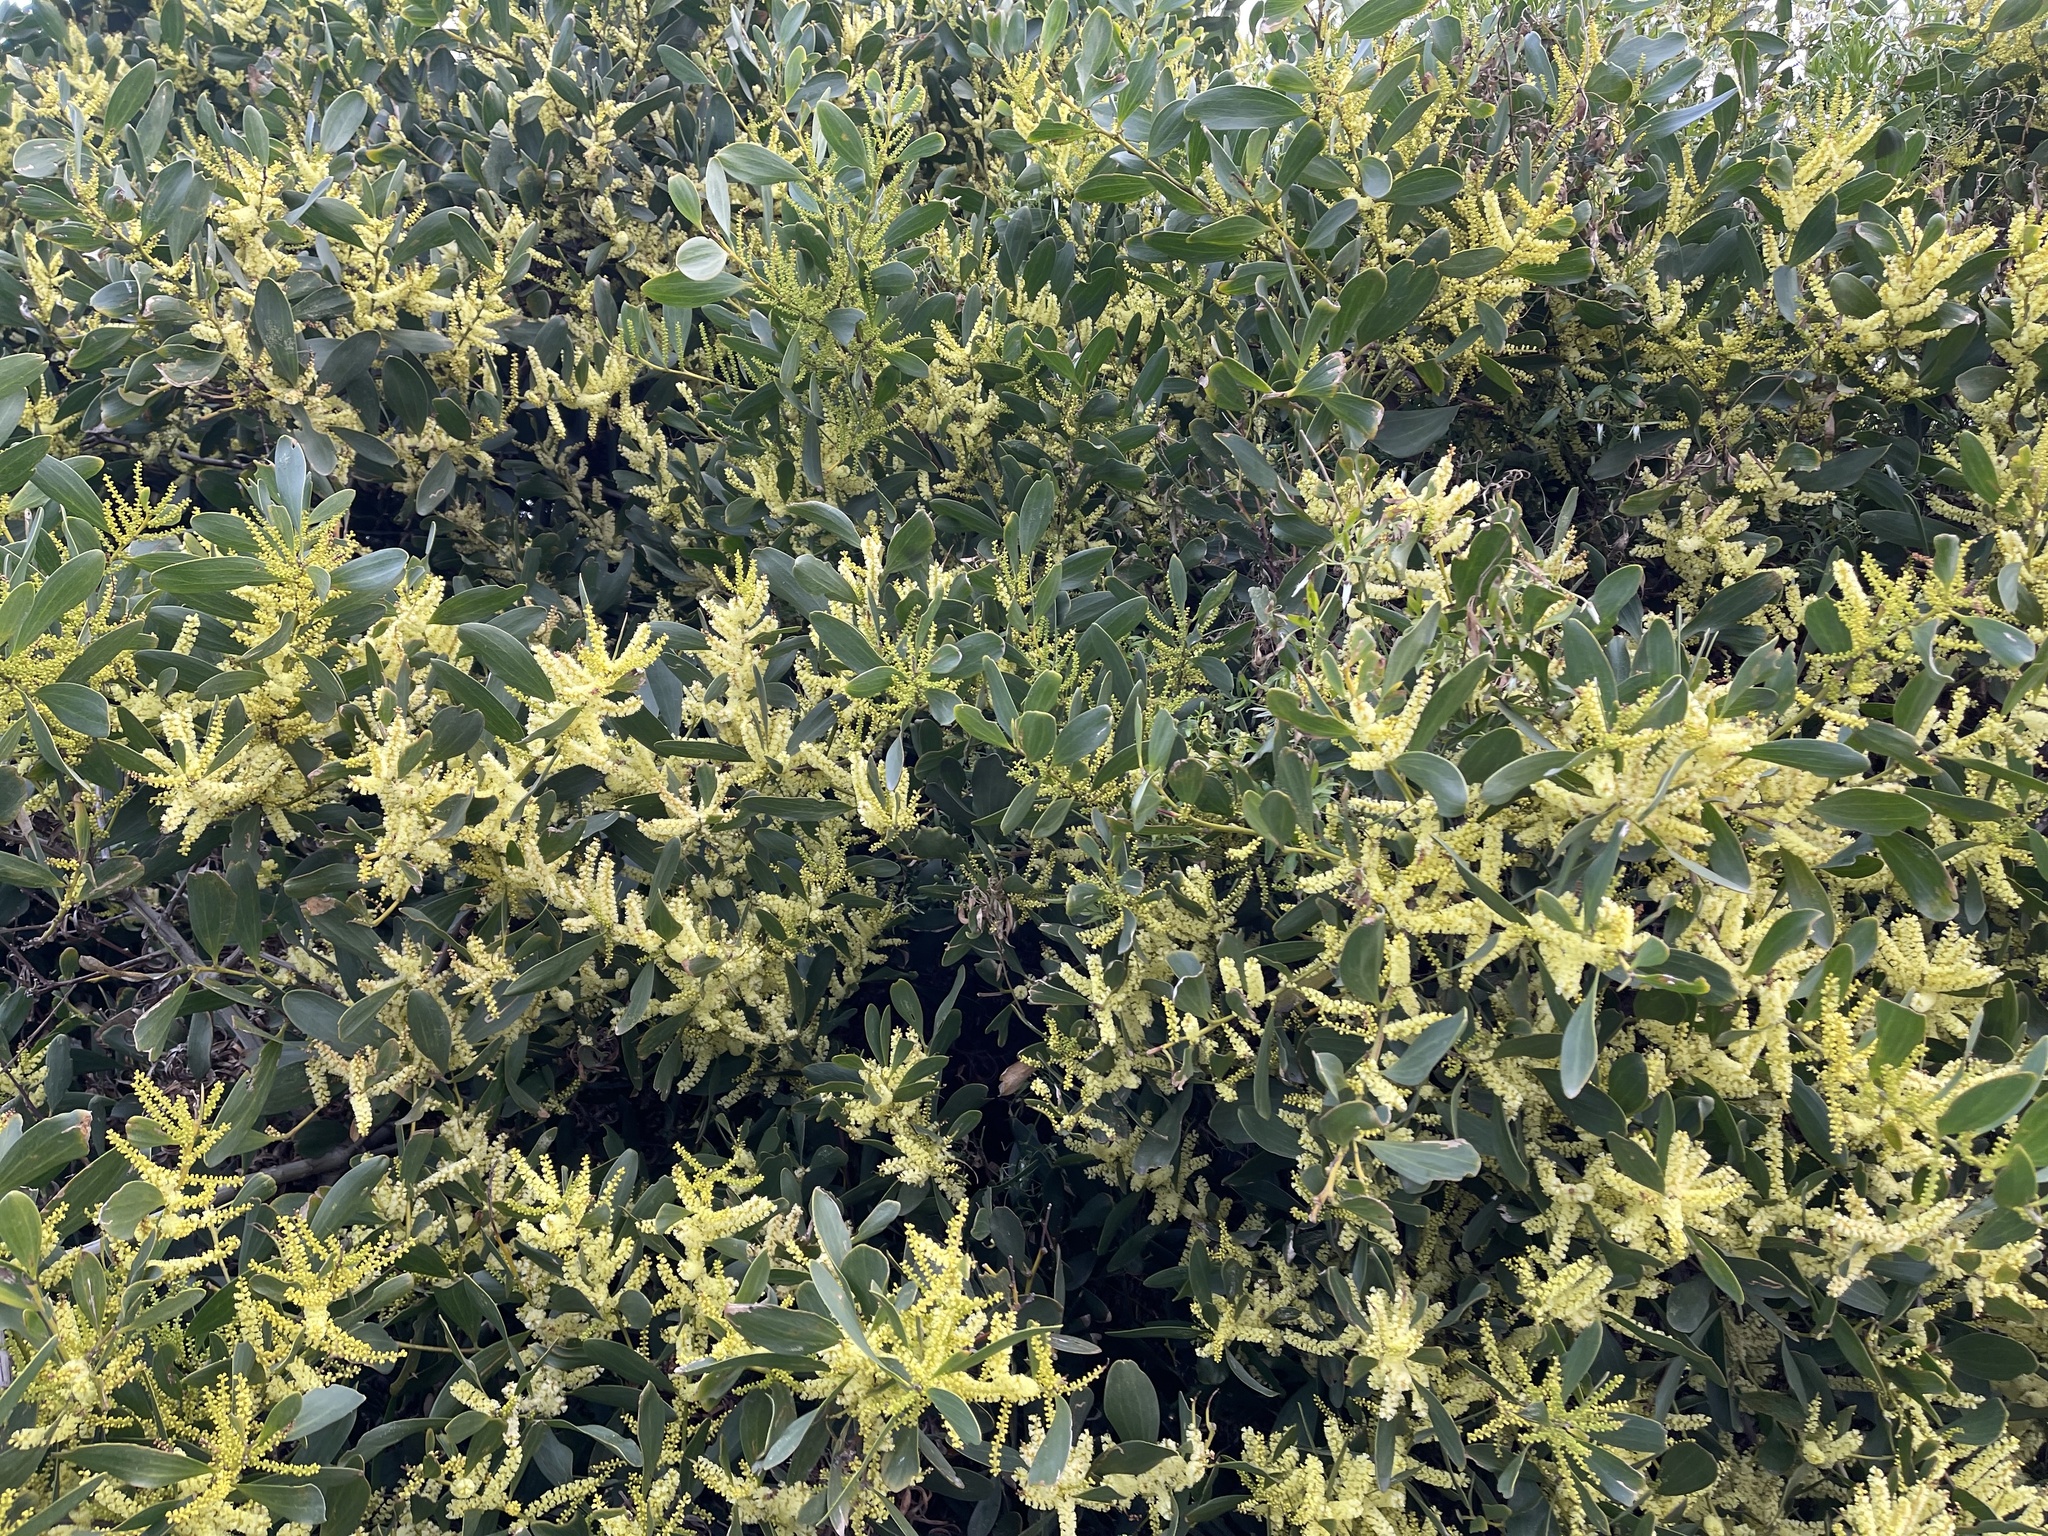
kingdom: Plantae
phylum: Tracheophyta
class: Magnoliopsida
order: Fabales
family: Fabaceae
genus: Acacia
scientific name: Acacia longifolia
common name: Sydney golden wattle
